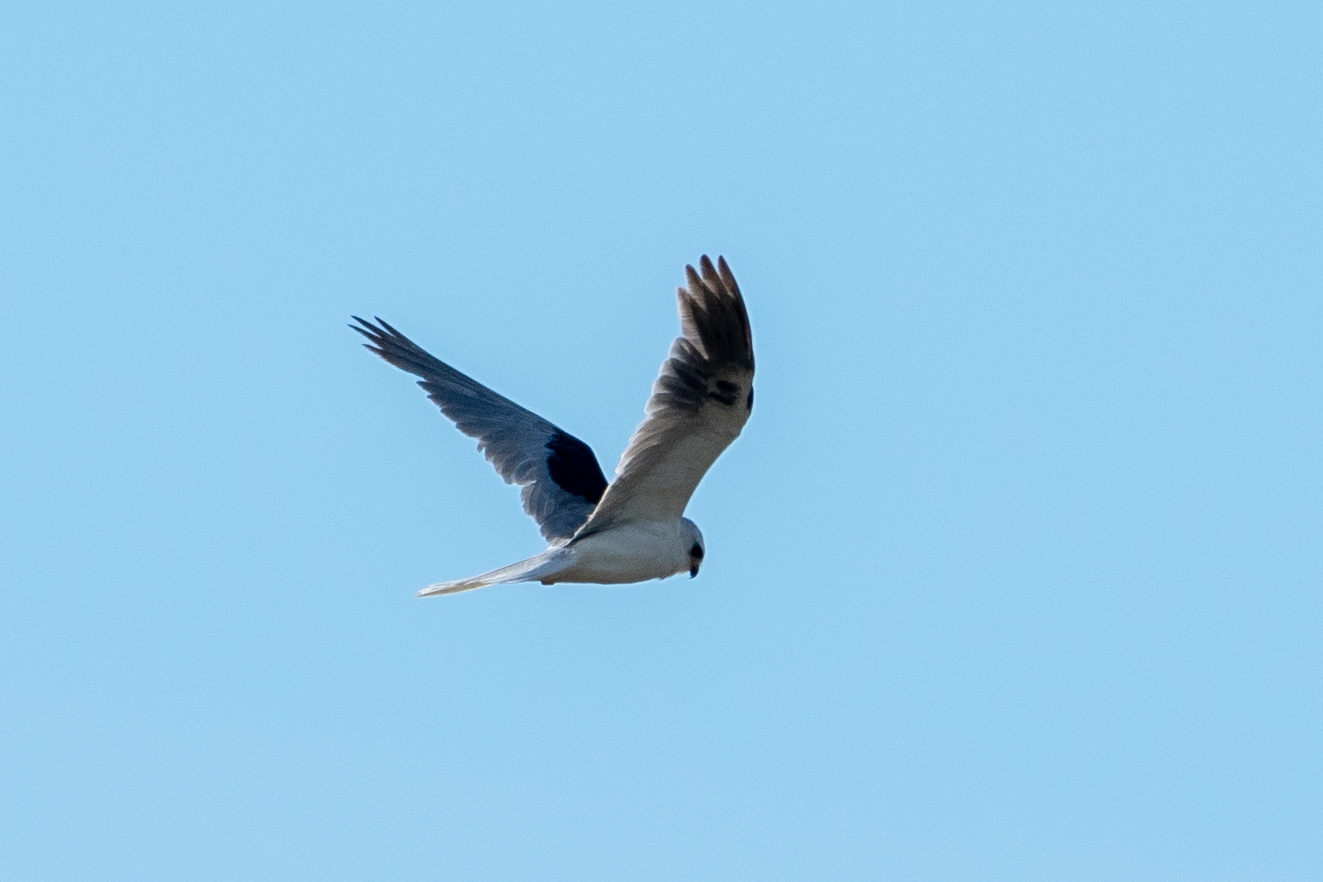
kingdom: Animalia
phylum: Chordata
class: Aves
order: Accipitriformes
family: Accipitridae
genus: Elanus
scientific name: Elanus leucurus
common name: White-tailed kite
